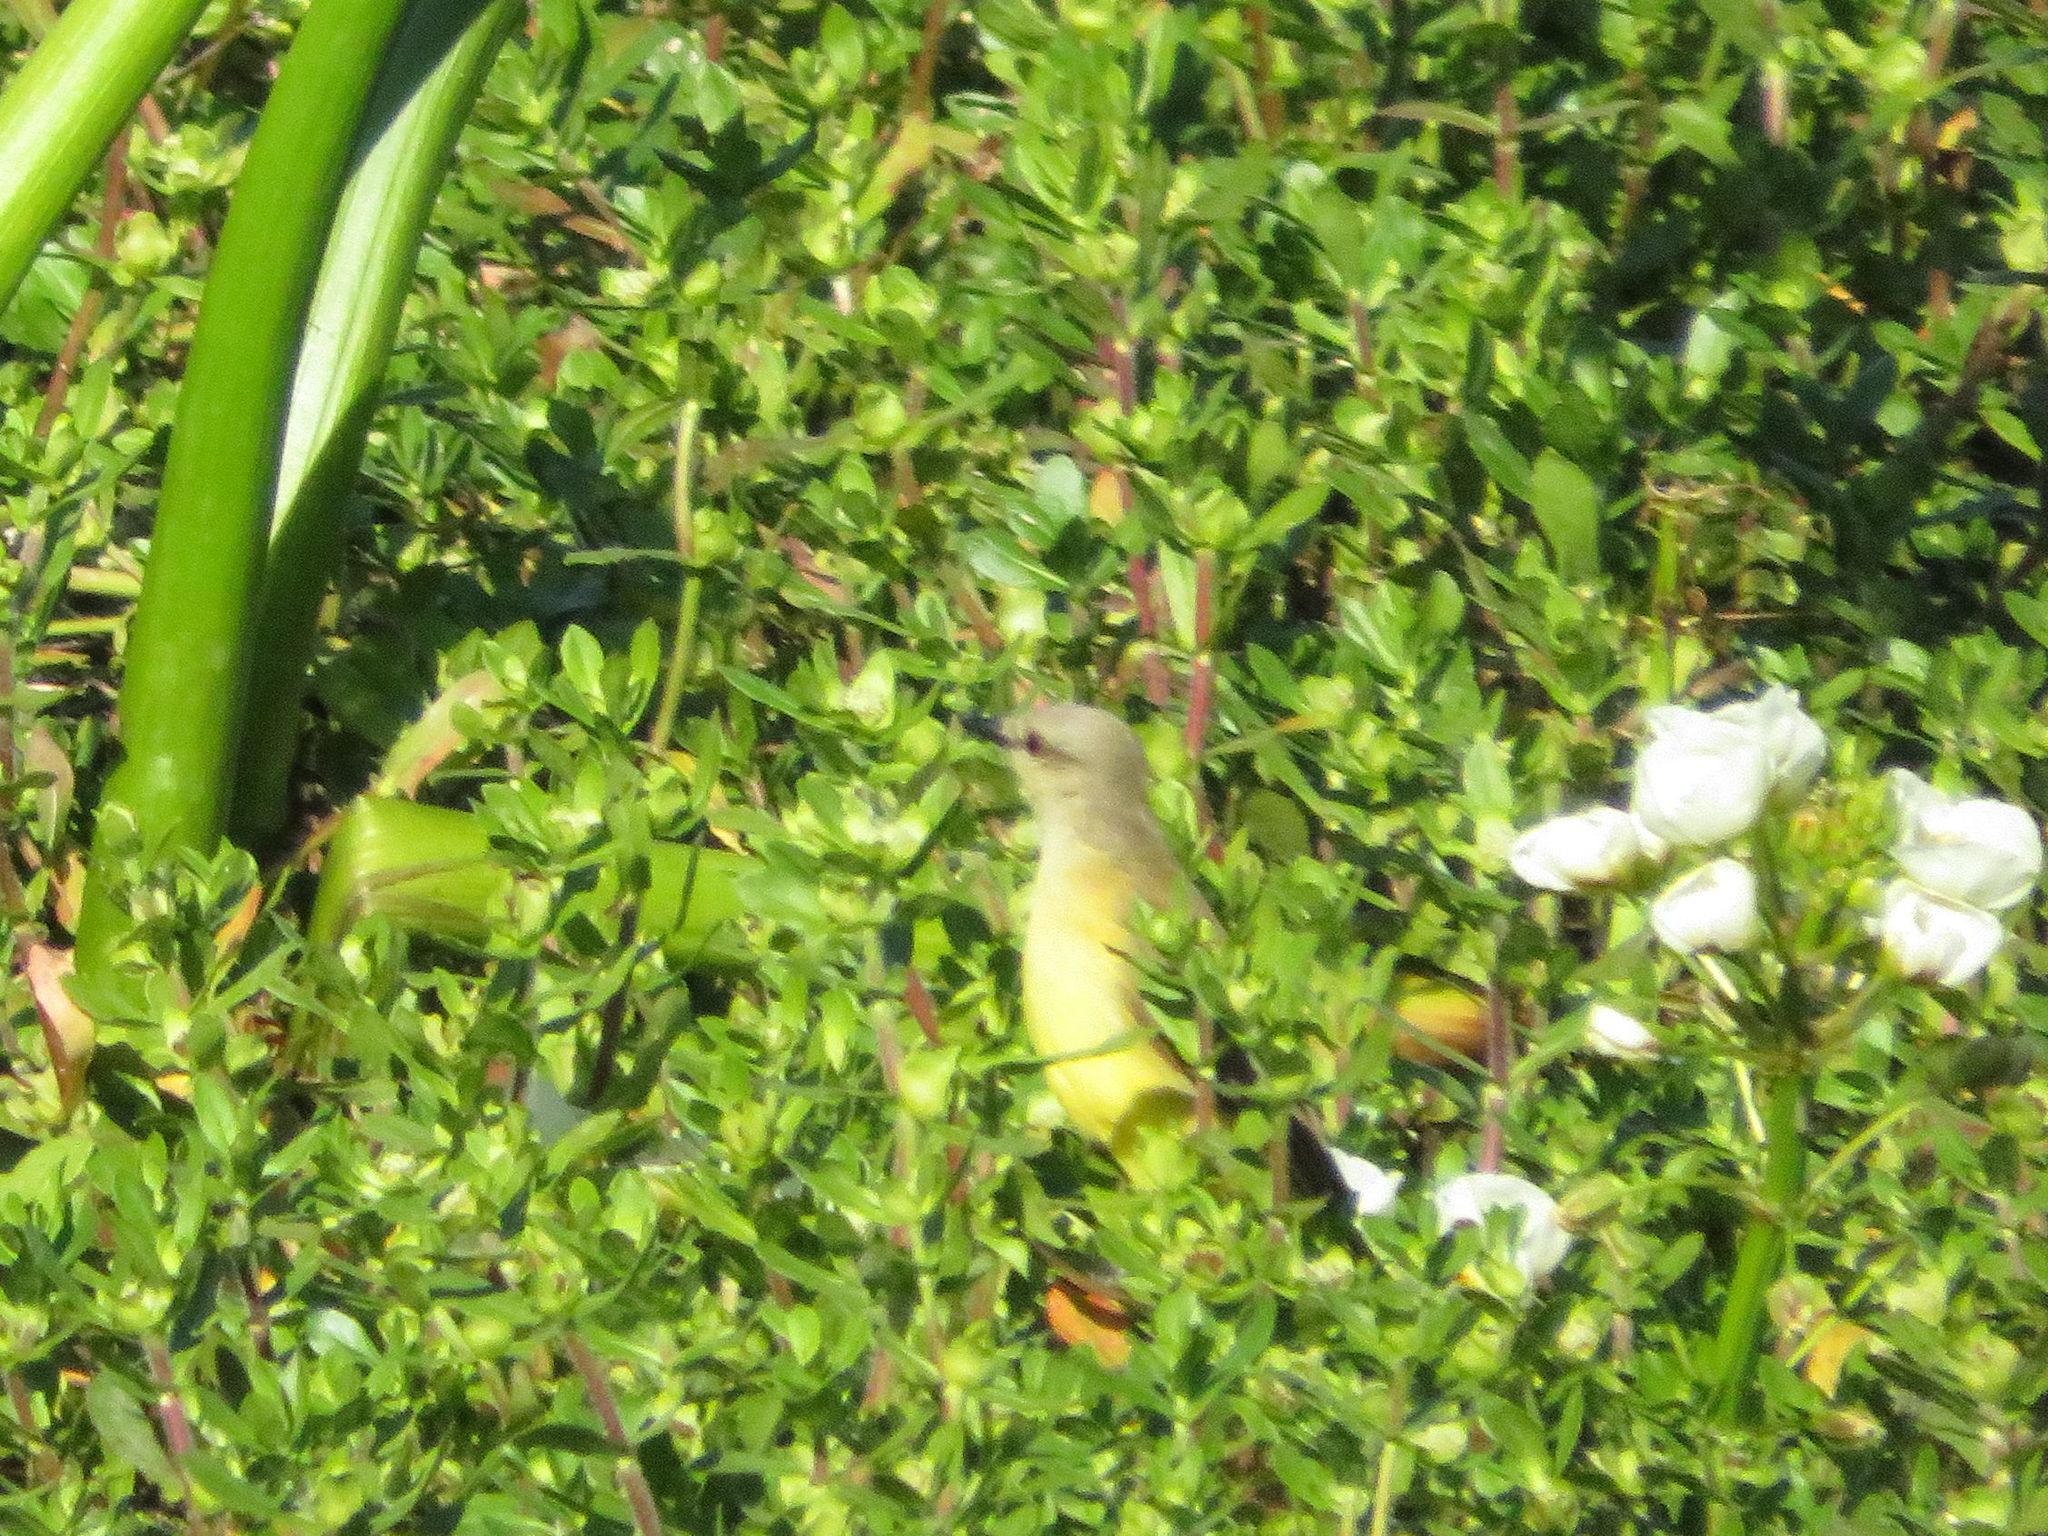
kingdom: Animalia
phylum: Chordata
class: Aves
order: Passeriformes
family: Tyrannidae
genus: Machetornis
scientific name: Machetornis rixosa
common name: Cattle tyrant
